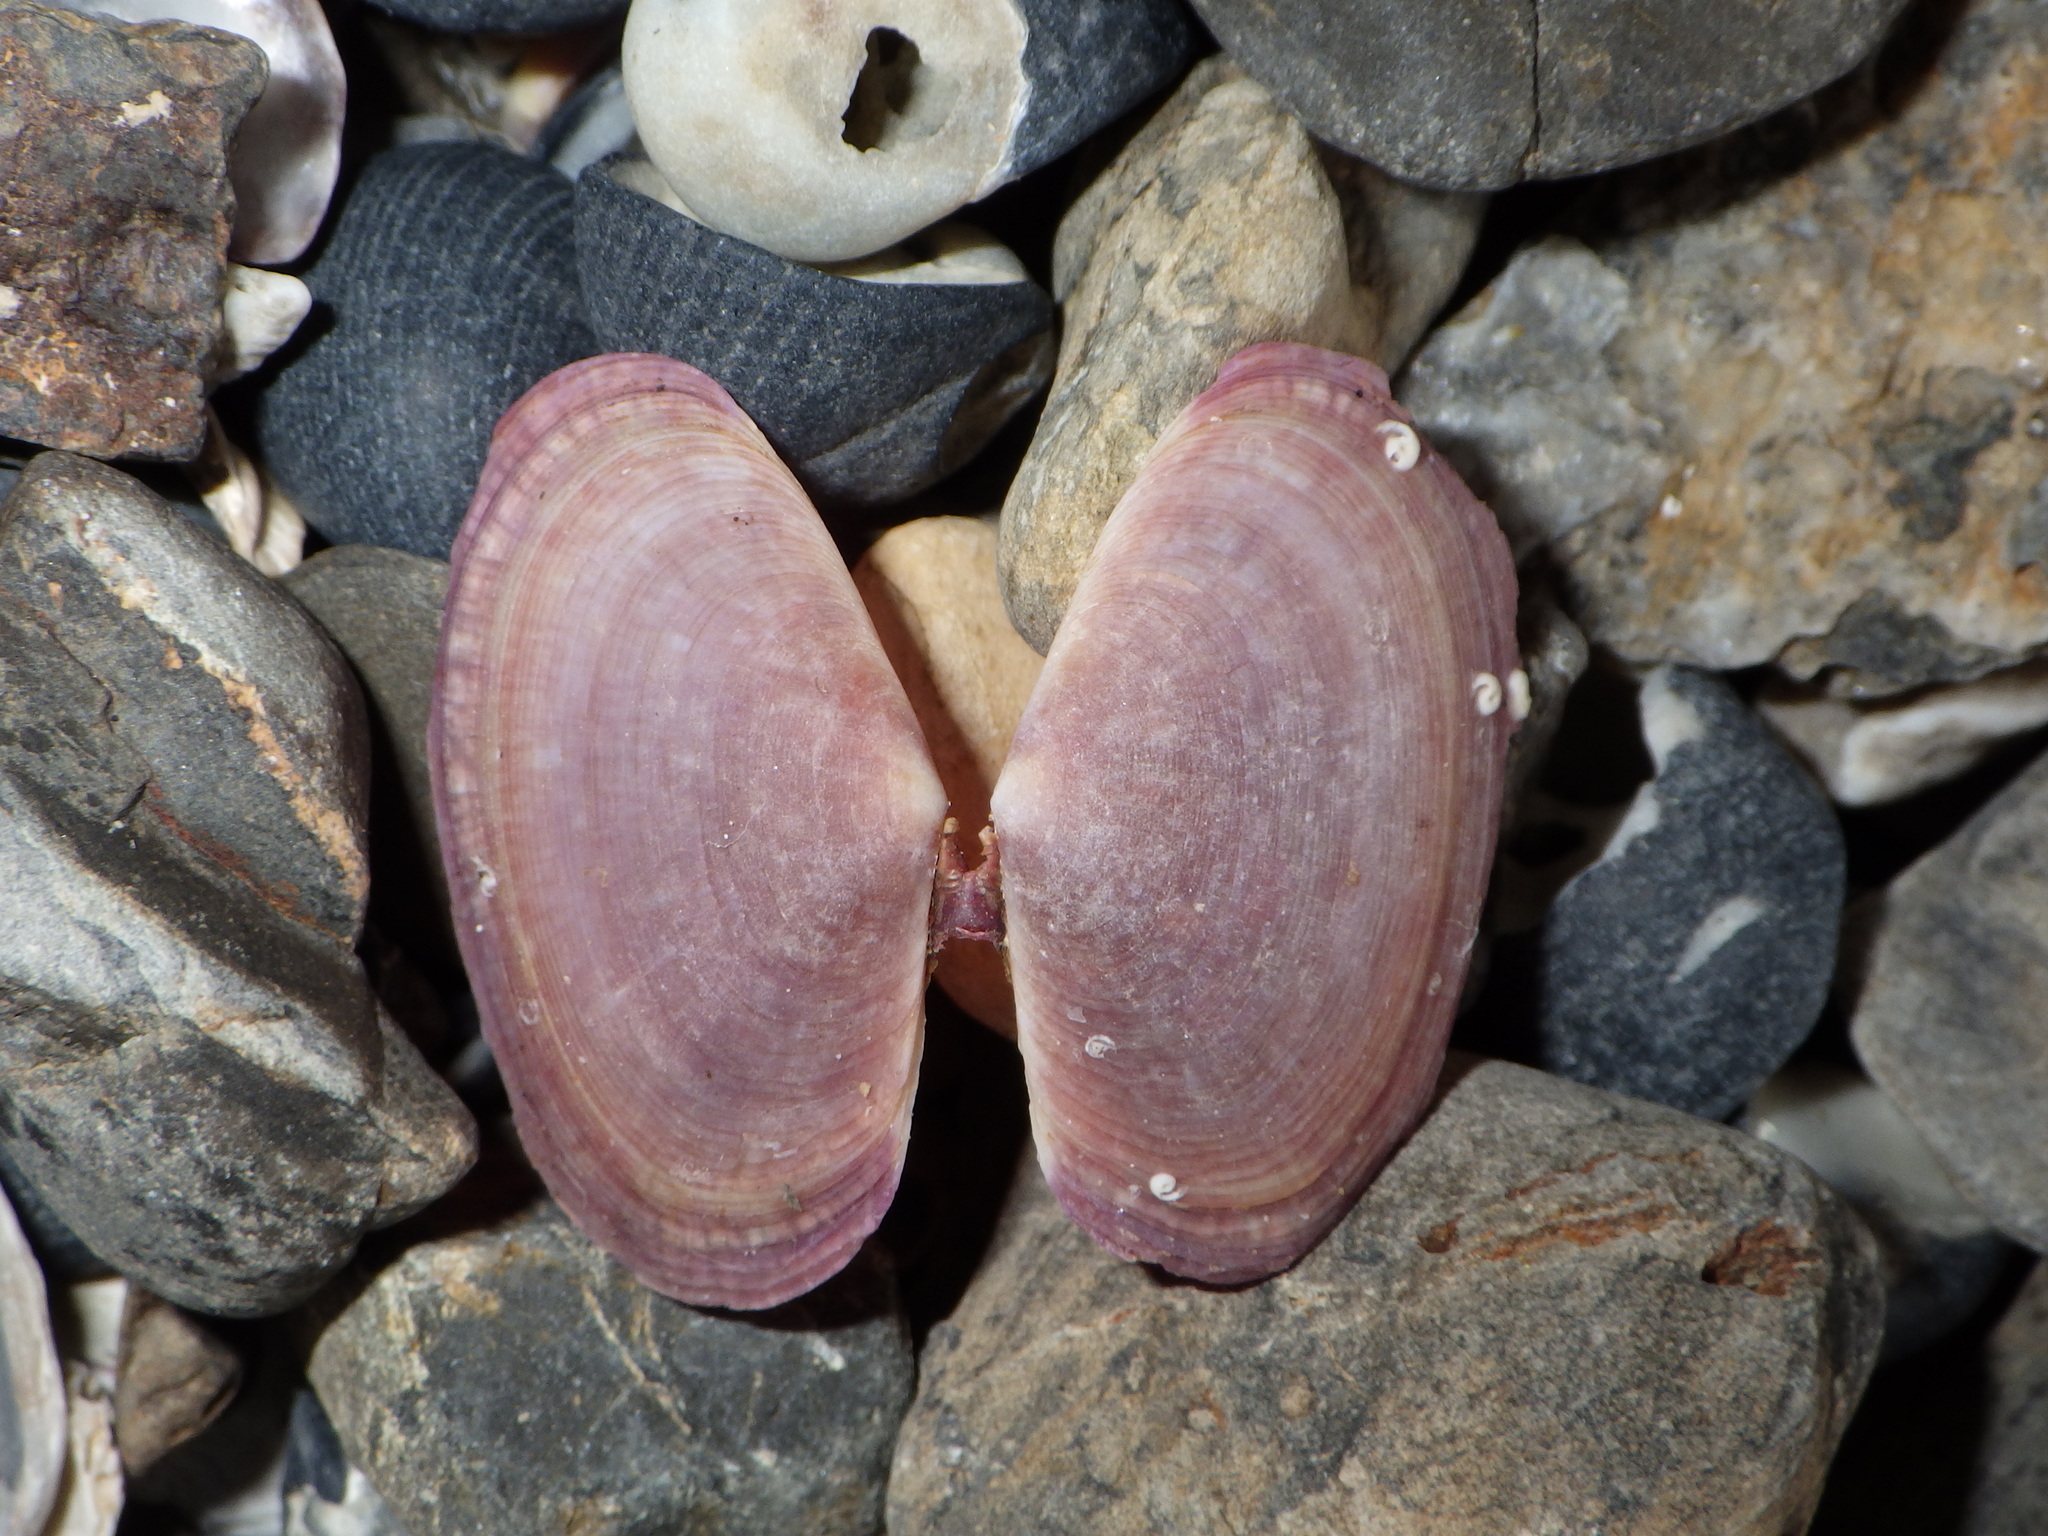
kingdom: Animalia
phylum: Mollusca
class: Bivalvia
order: Cardiida
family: Psammobiidae
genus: Gari
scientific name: Gari stangeri
